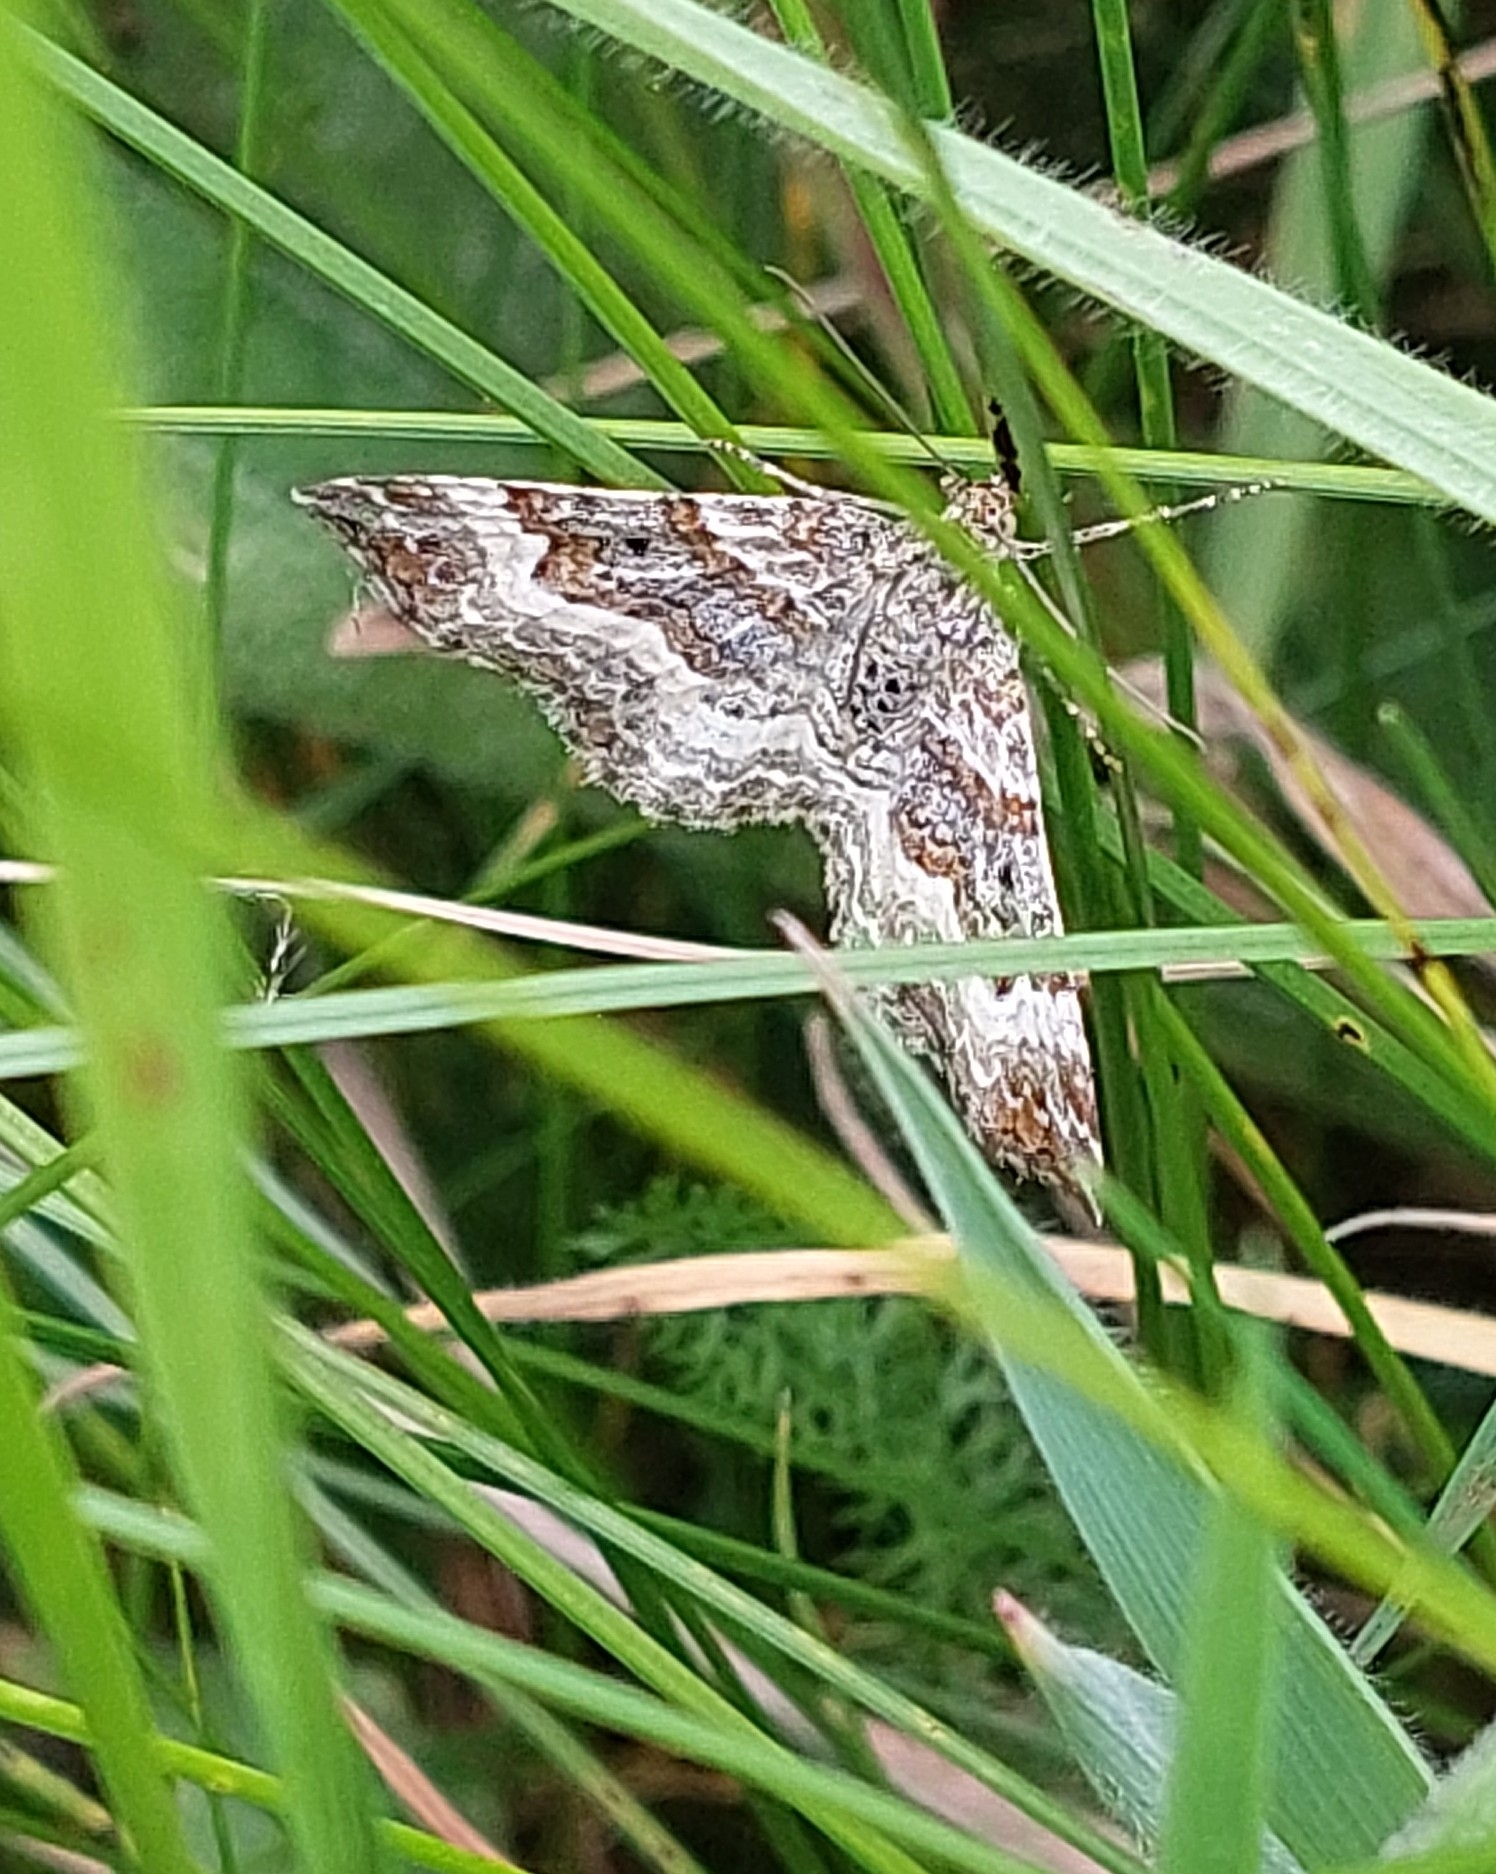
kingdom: Animalia
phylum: Arthropoda
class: Insecta
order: Lepidoptera
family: Geometridae
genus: Epirrhoe
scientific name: Epirrhoe alternata
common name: Common carpet
